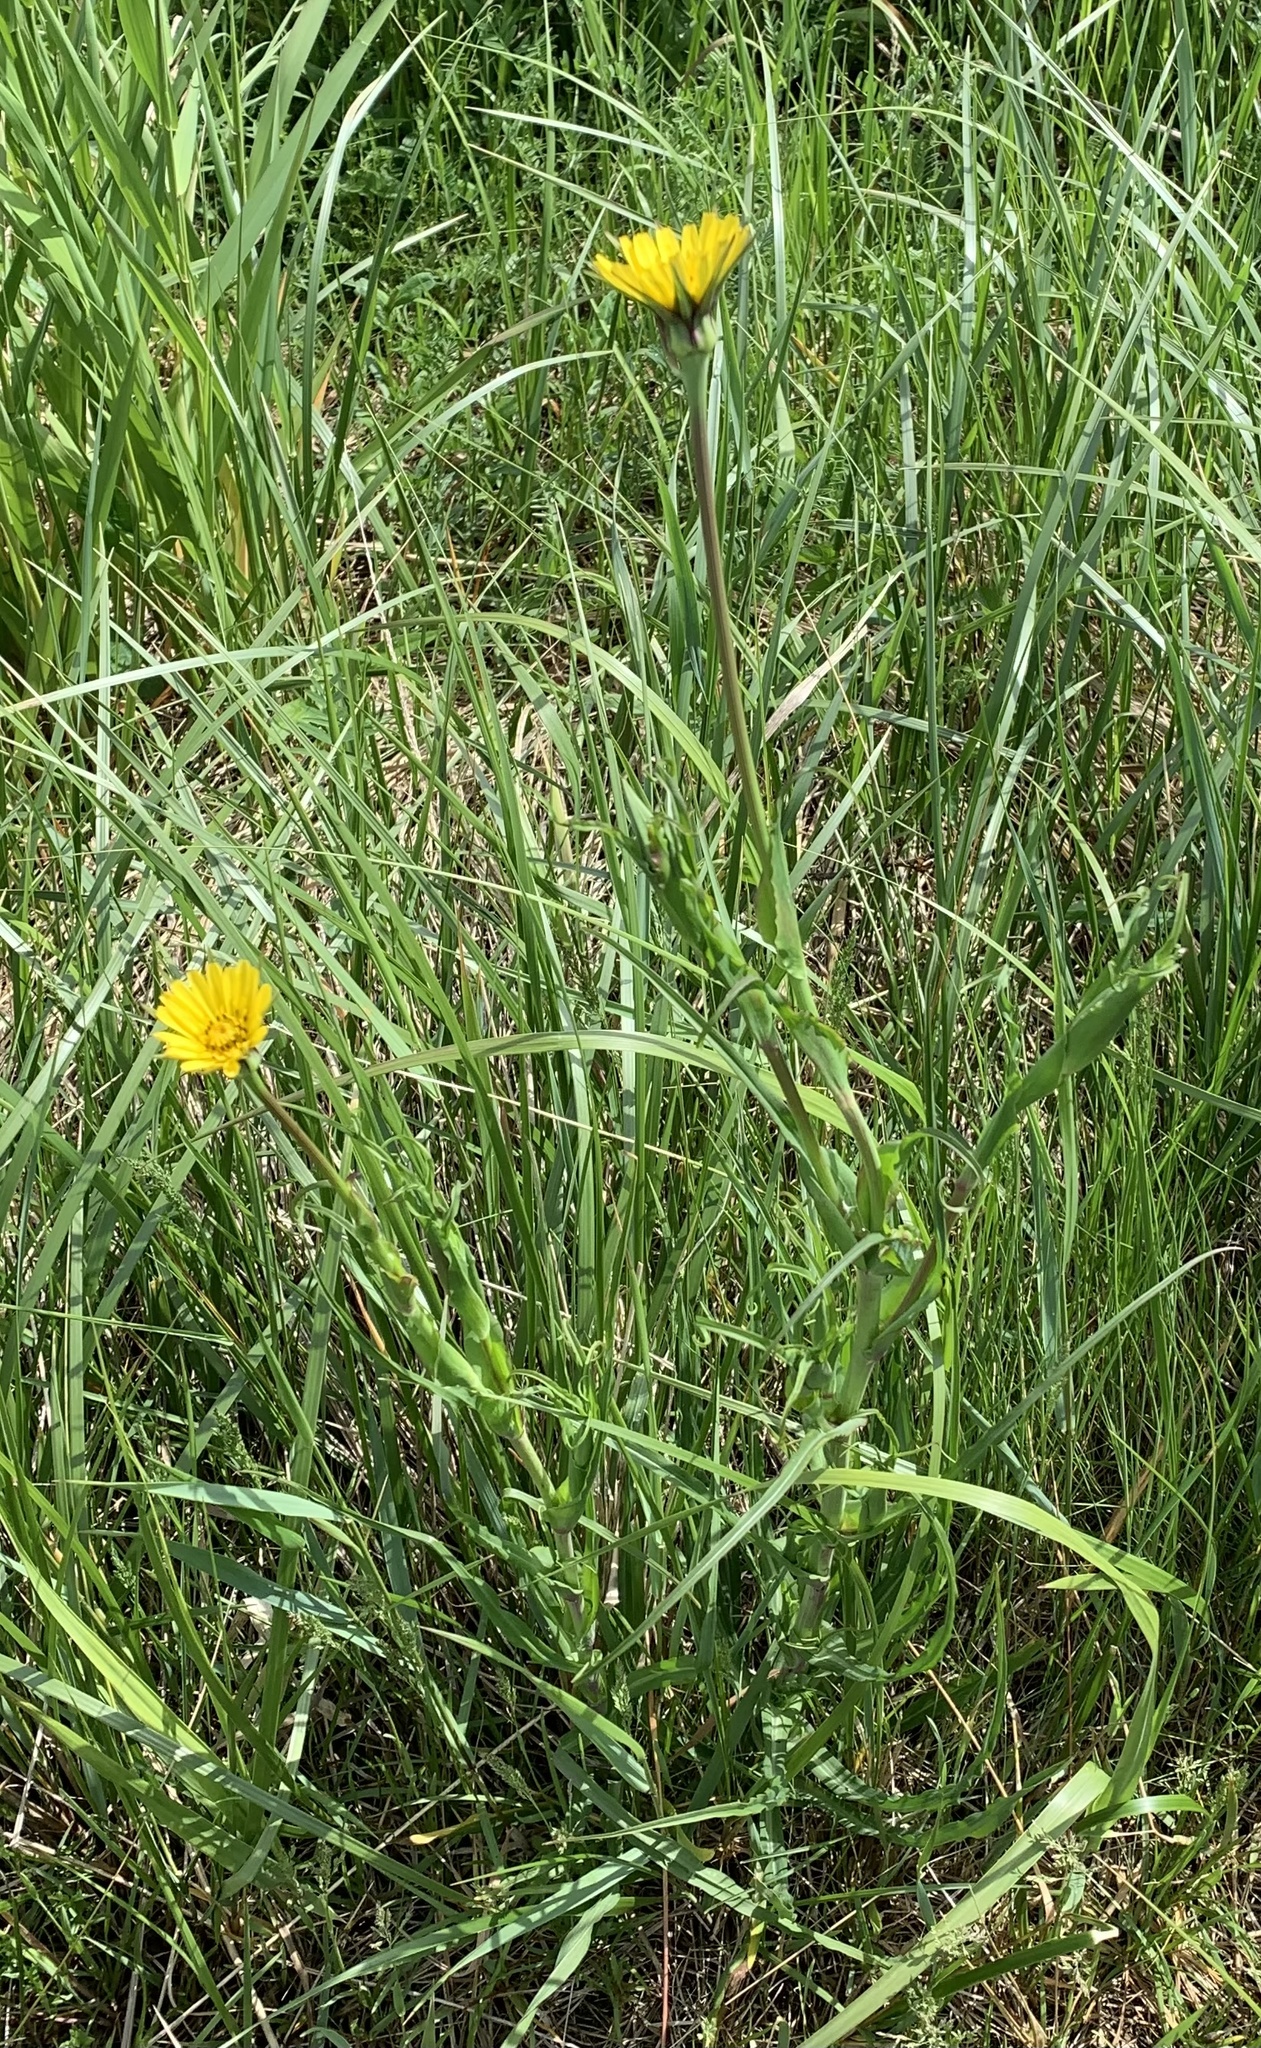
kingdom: Plantae
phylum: Tracheophyta
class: Magnoliopsida
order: Asterales
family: Asteraceae
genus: Tragopogon
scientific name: Tragopogon pratensis
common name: Goat's-beard
